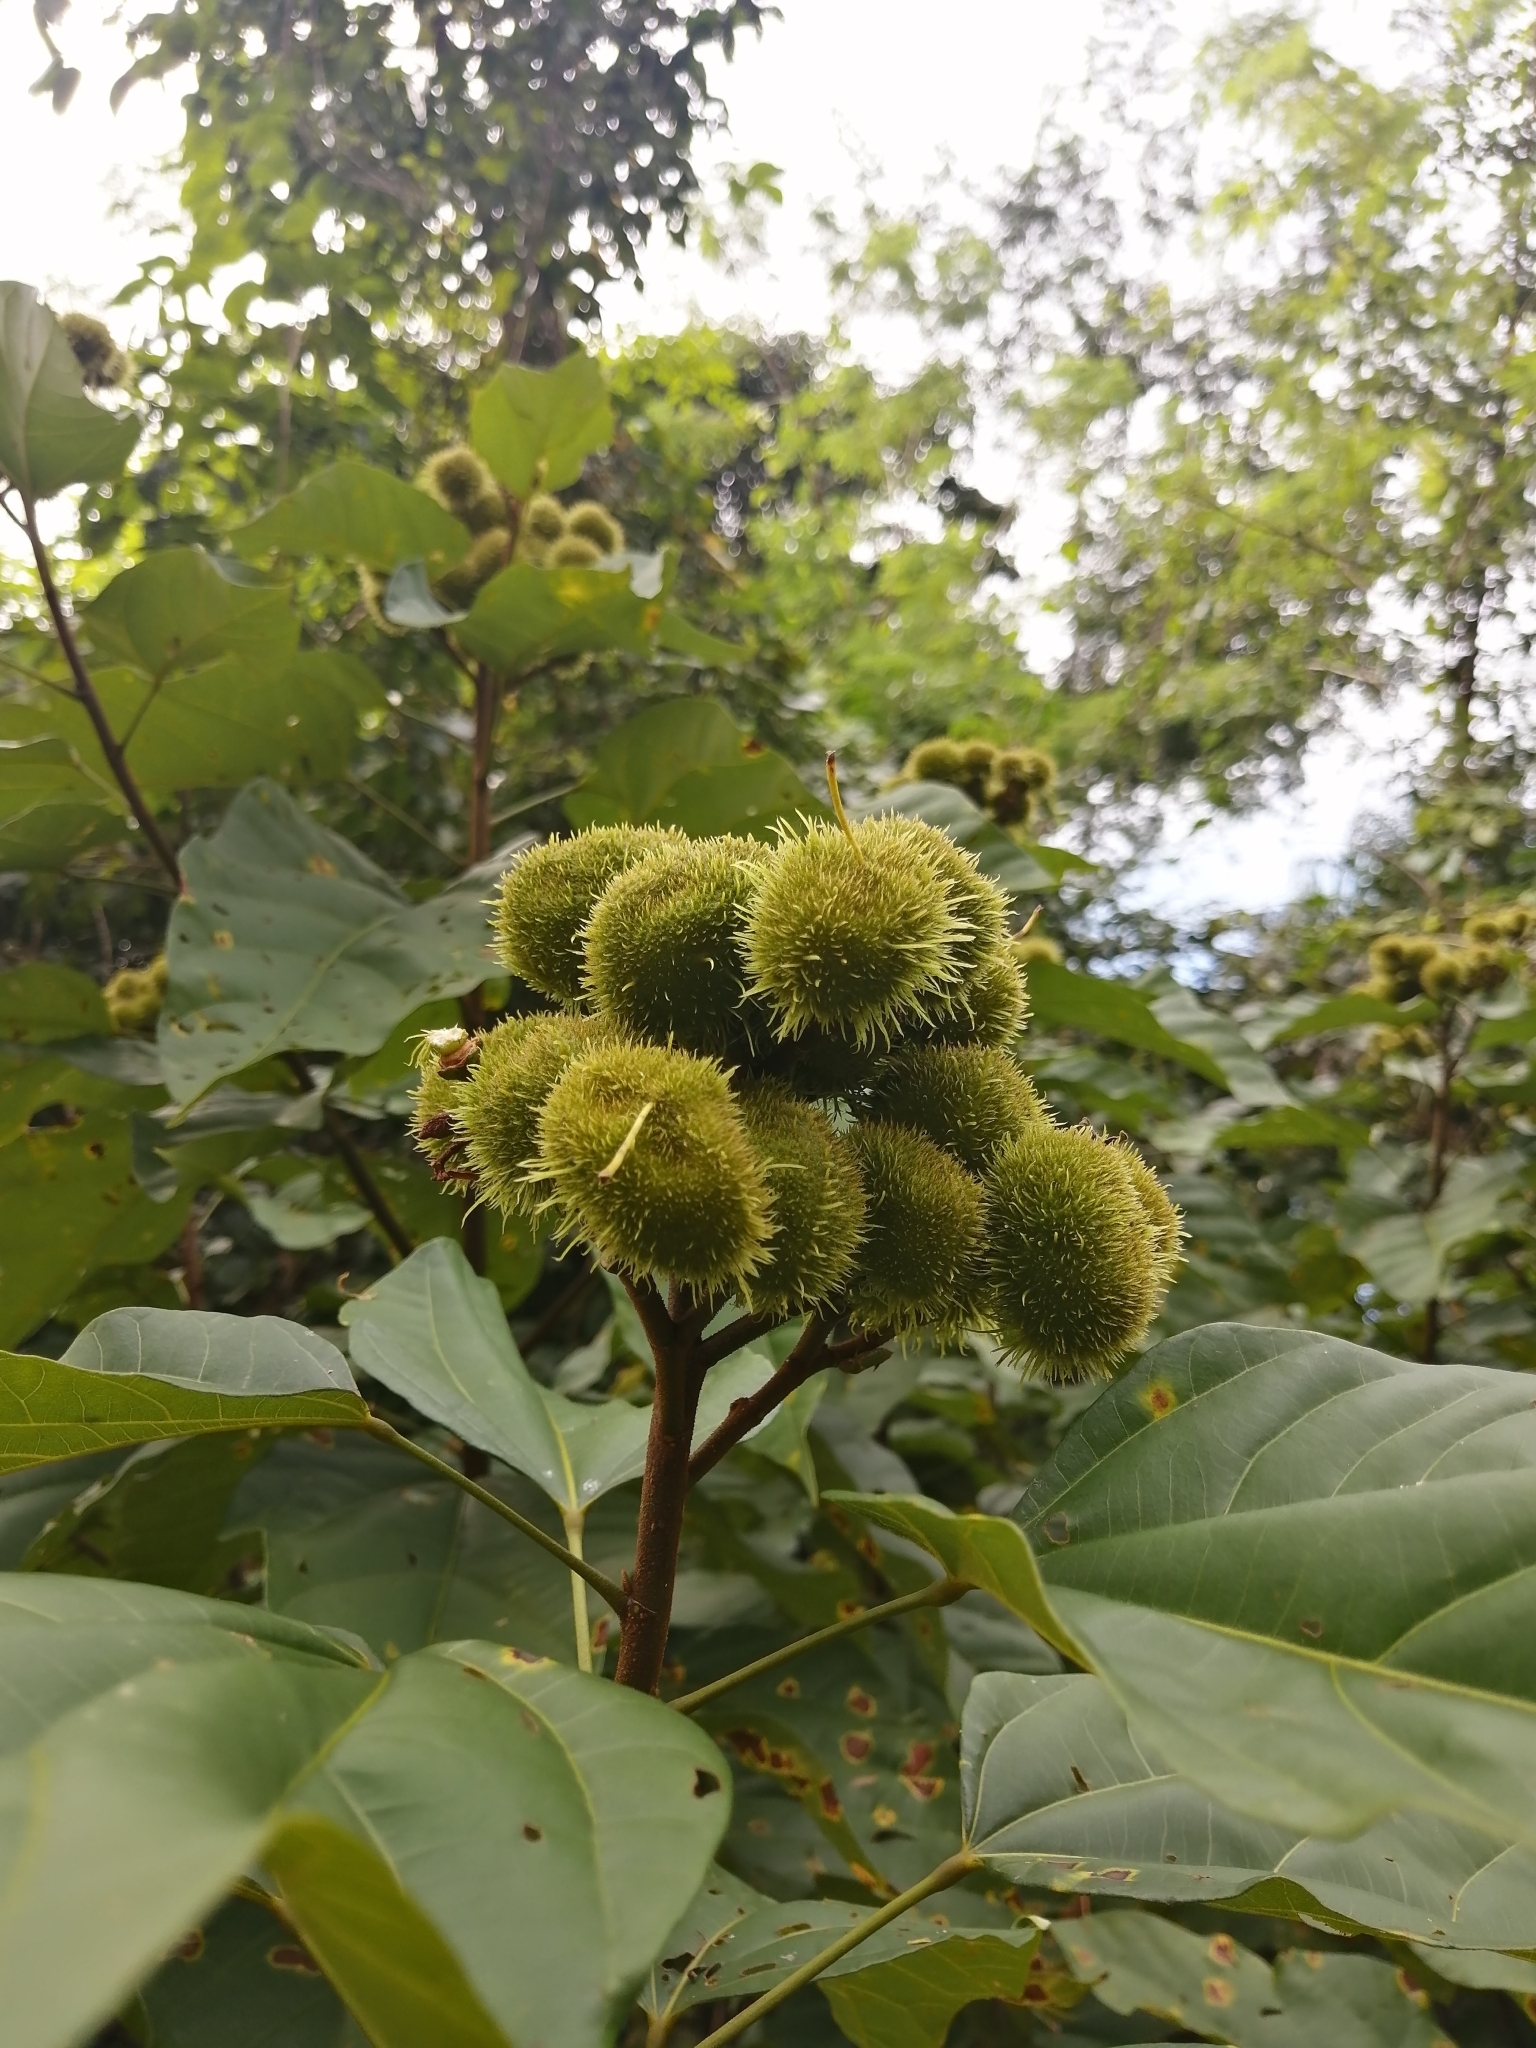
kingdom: Plantae
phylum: Tracheophyta
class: Magnoliopsida
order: Malvales
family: Bixaceae
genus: Bixa
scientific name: Bixa orellana
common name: Lipsticktree
